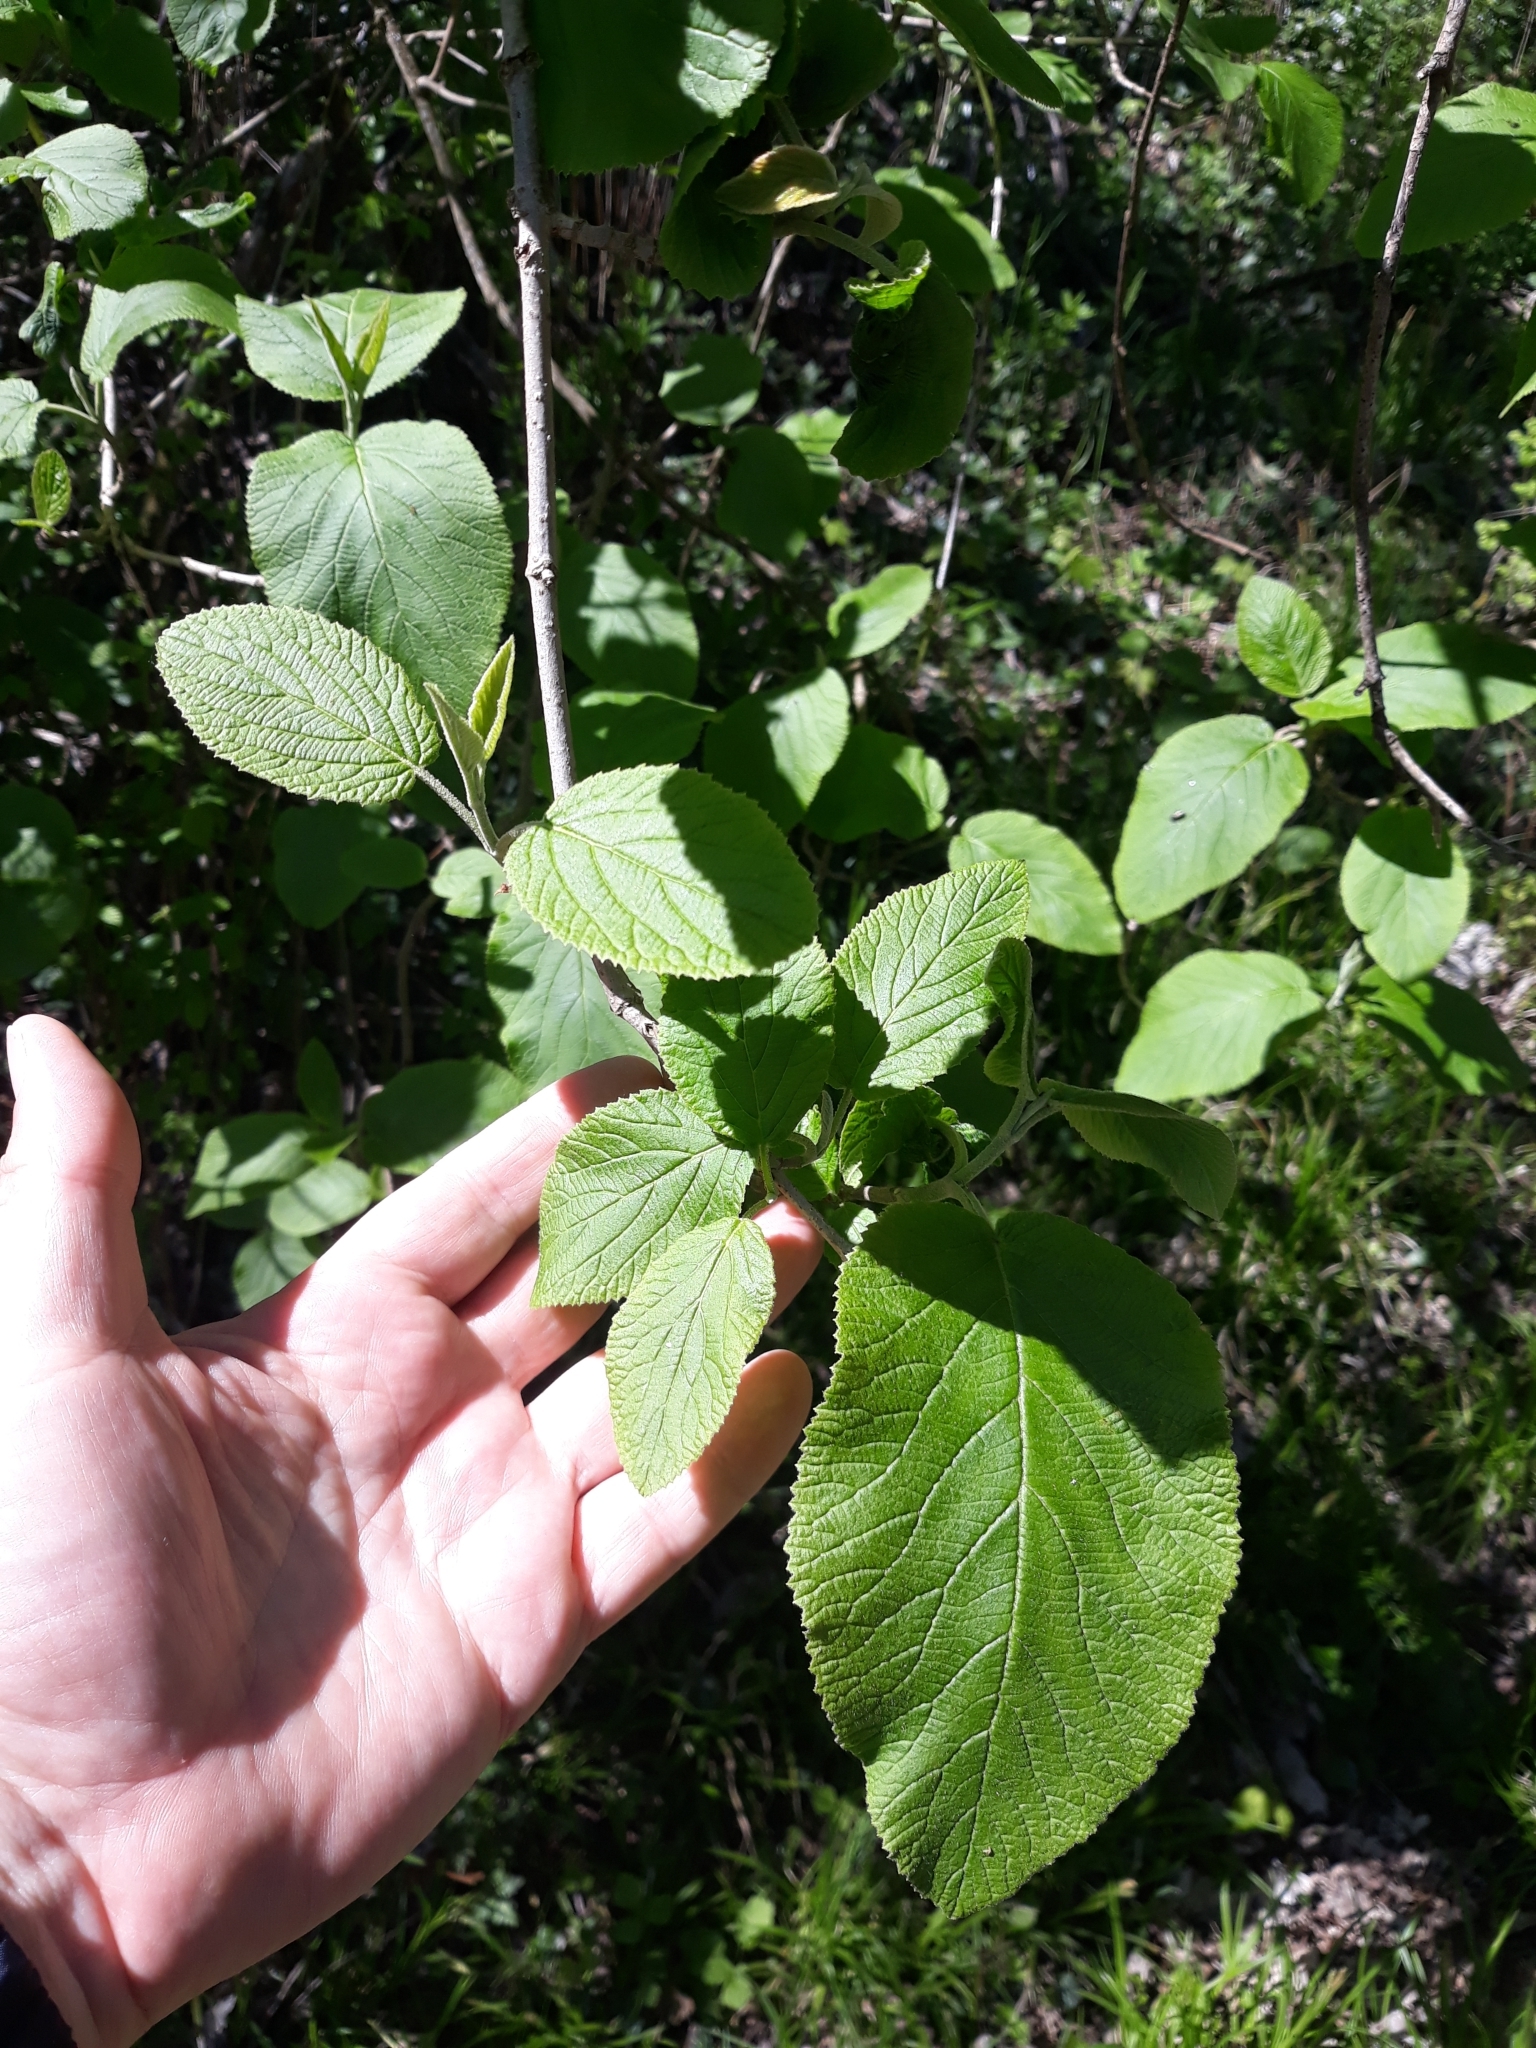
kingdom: Plantae
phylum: Tracheophyta
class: Magnoliopsida
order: Dipsacales
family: Viburnaceae
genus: Viburnum
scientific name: Viburnum lantana
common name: Wayfaring tree
